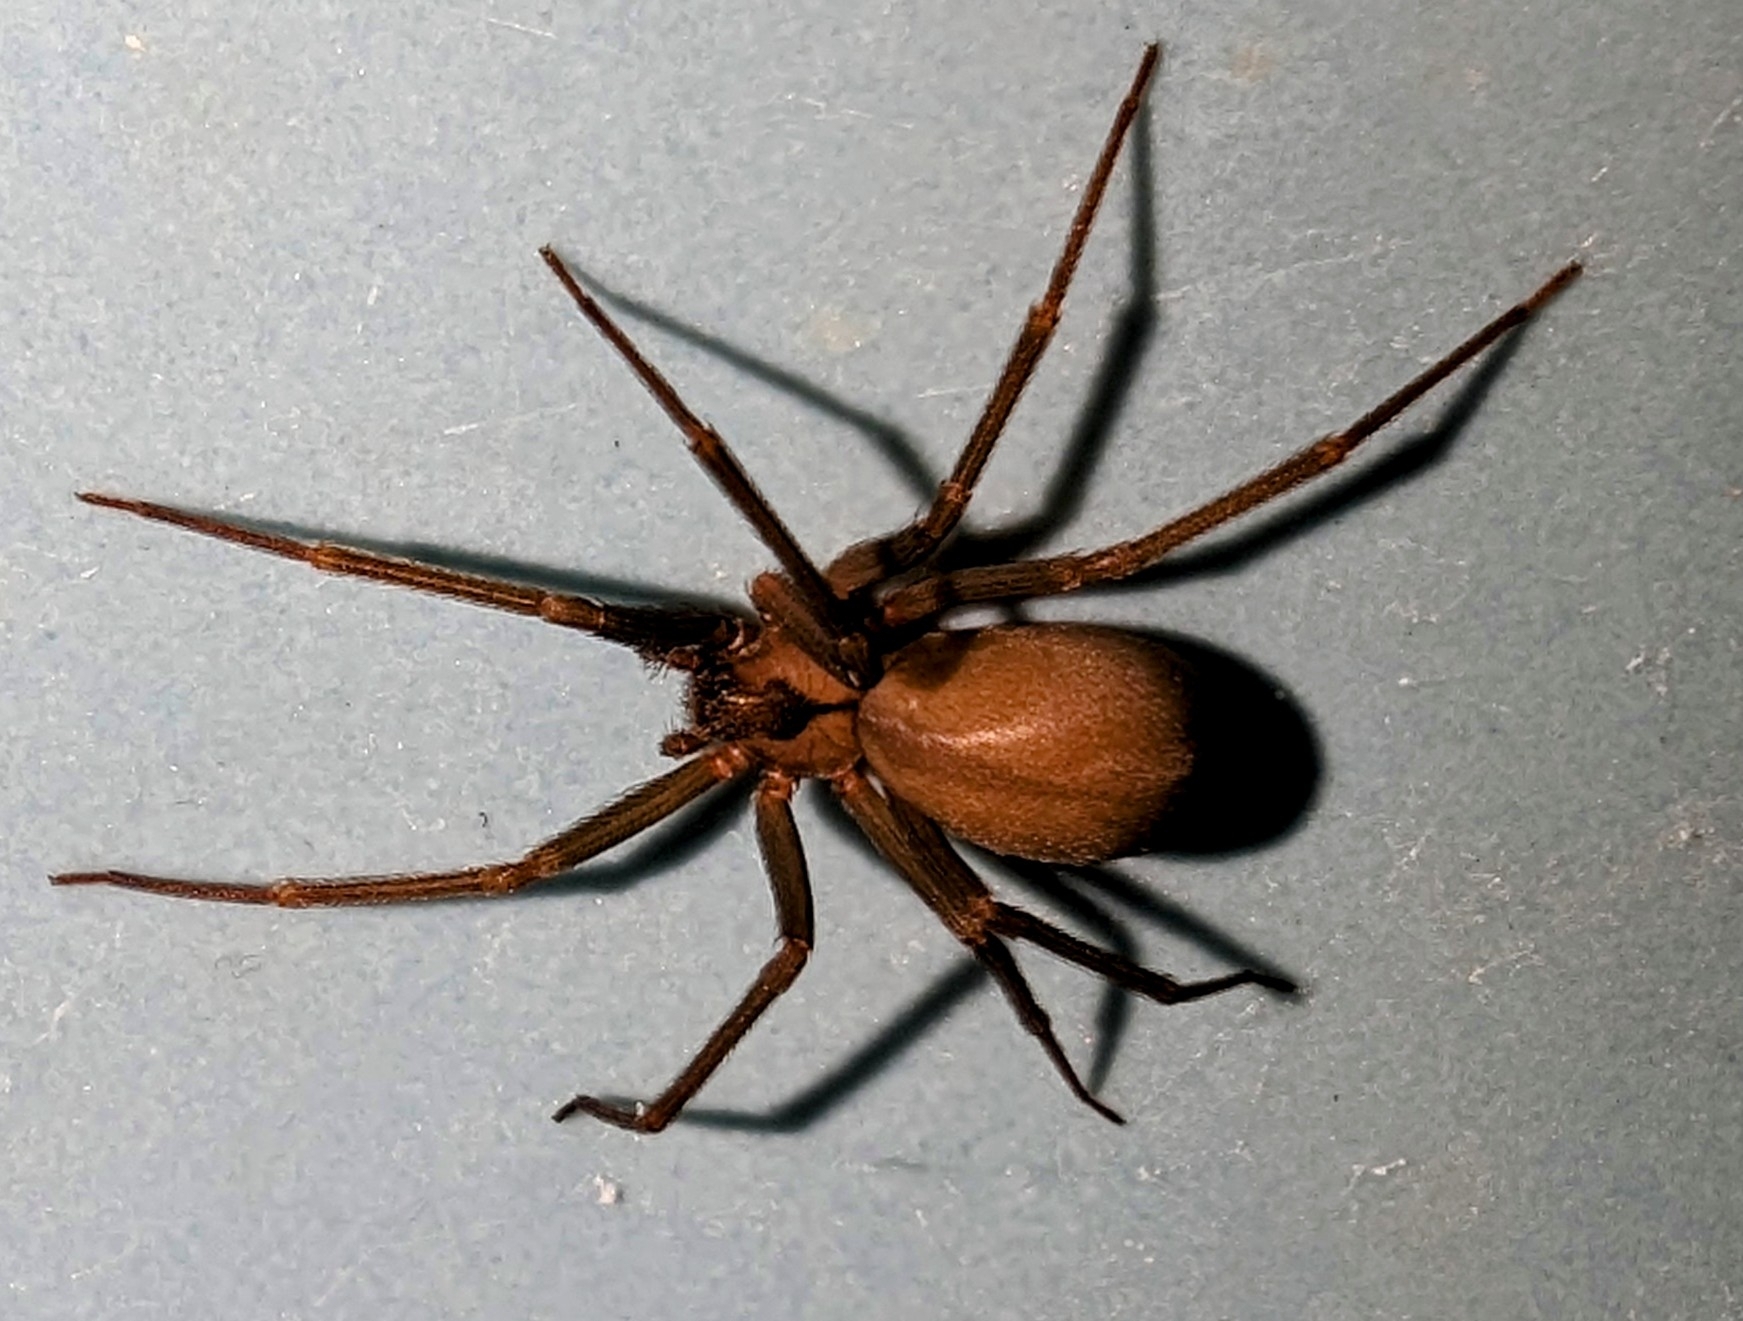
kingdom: Animalia
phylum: Arthropoda
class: Arachnida
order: Araneae
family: Sicariidae
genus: Loxosceles
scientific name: Loxosceles reclusa
